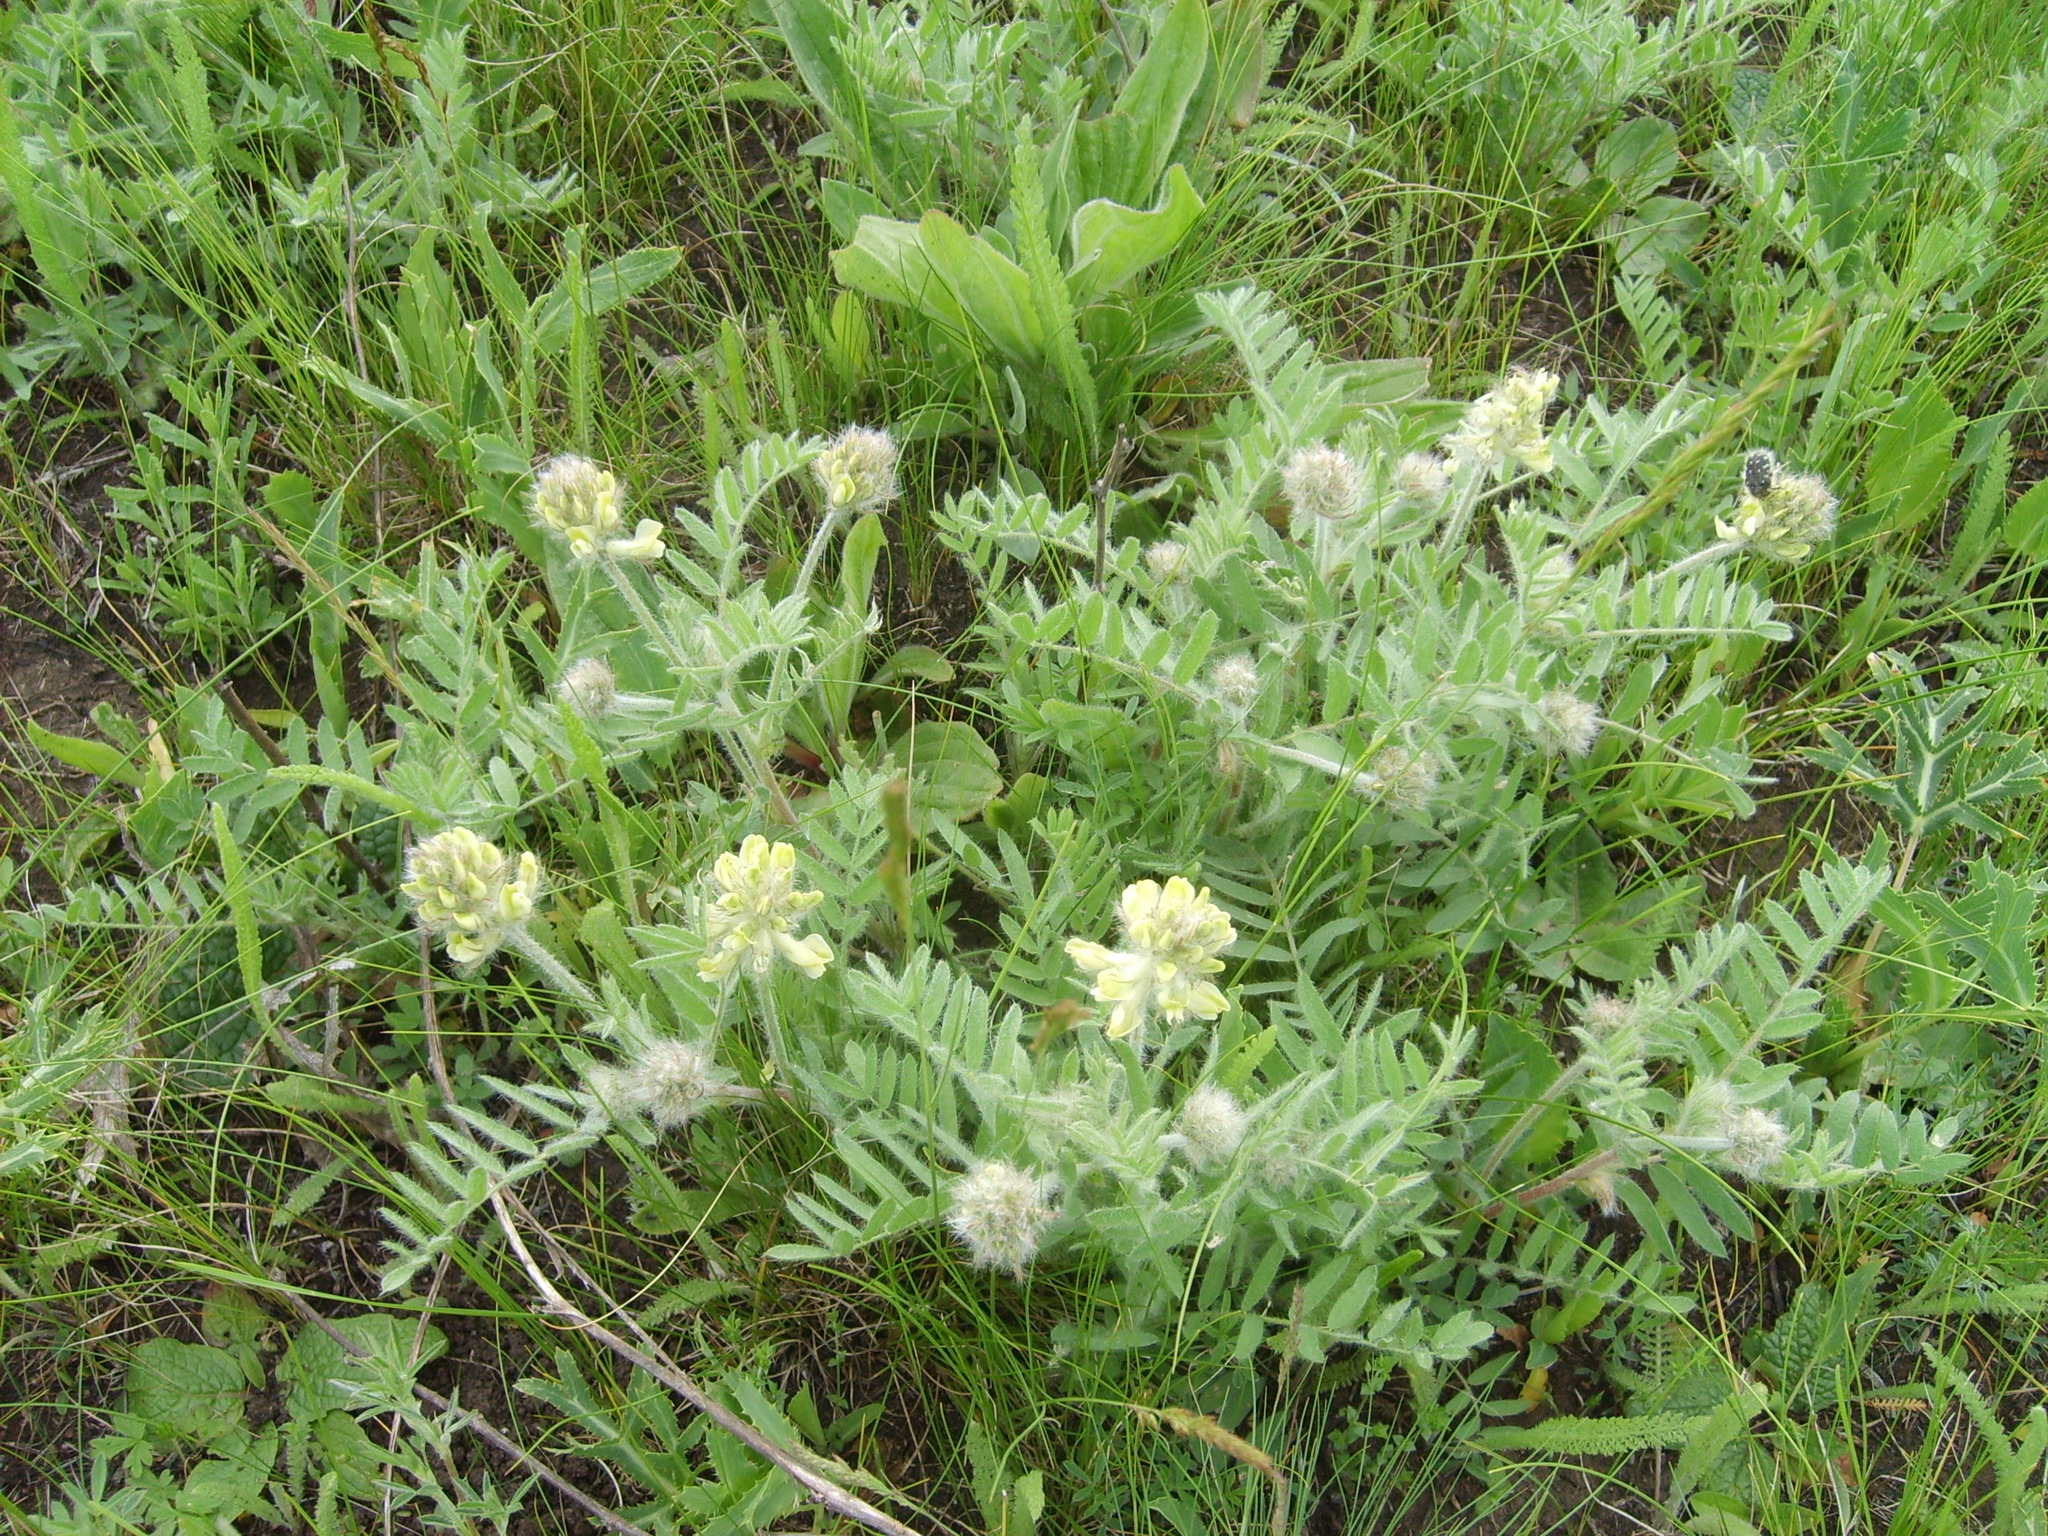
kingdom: Plantae
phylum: Tracheophyta
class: Magnoliopsida
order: Fabales
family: Fabaceae
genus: Oxytropis
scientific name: Oxytropis pilosa
